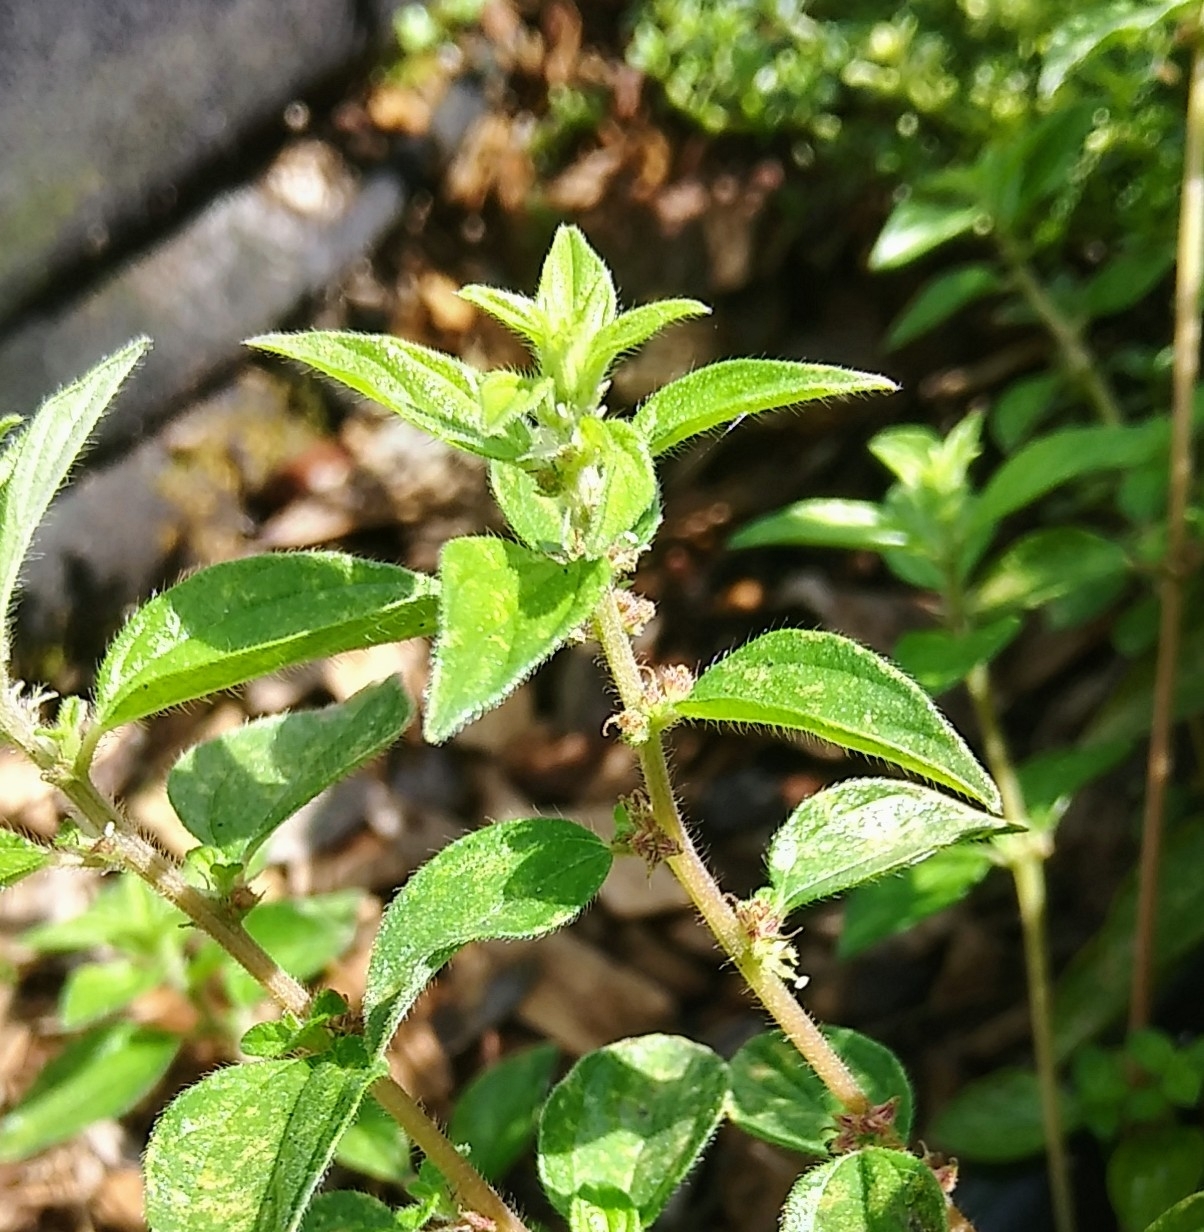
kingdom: Plantae
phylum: Tracheophyta
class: Magnoliopsida
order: Rosales
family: Urticaceae
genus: Pouzolzia
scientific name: Pouzolzia zeylanica
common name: Graceful pouzolzsbush
